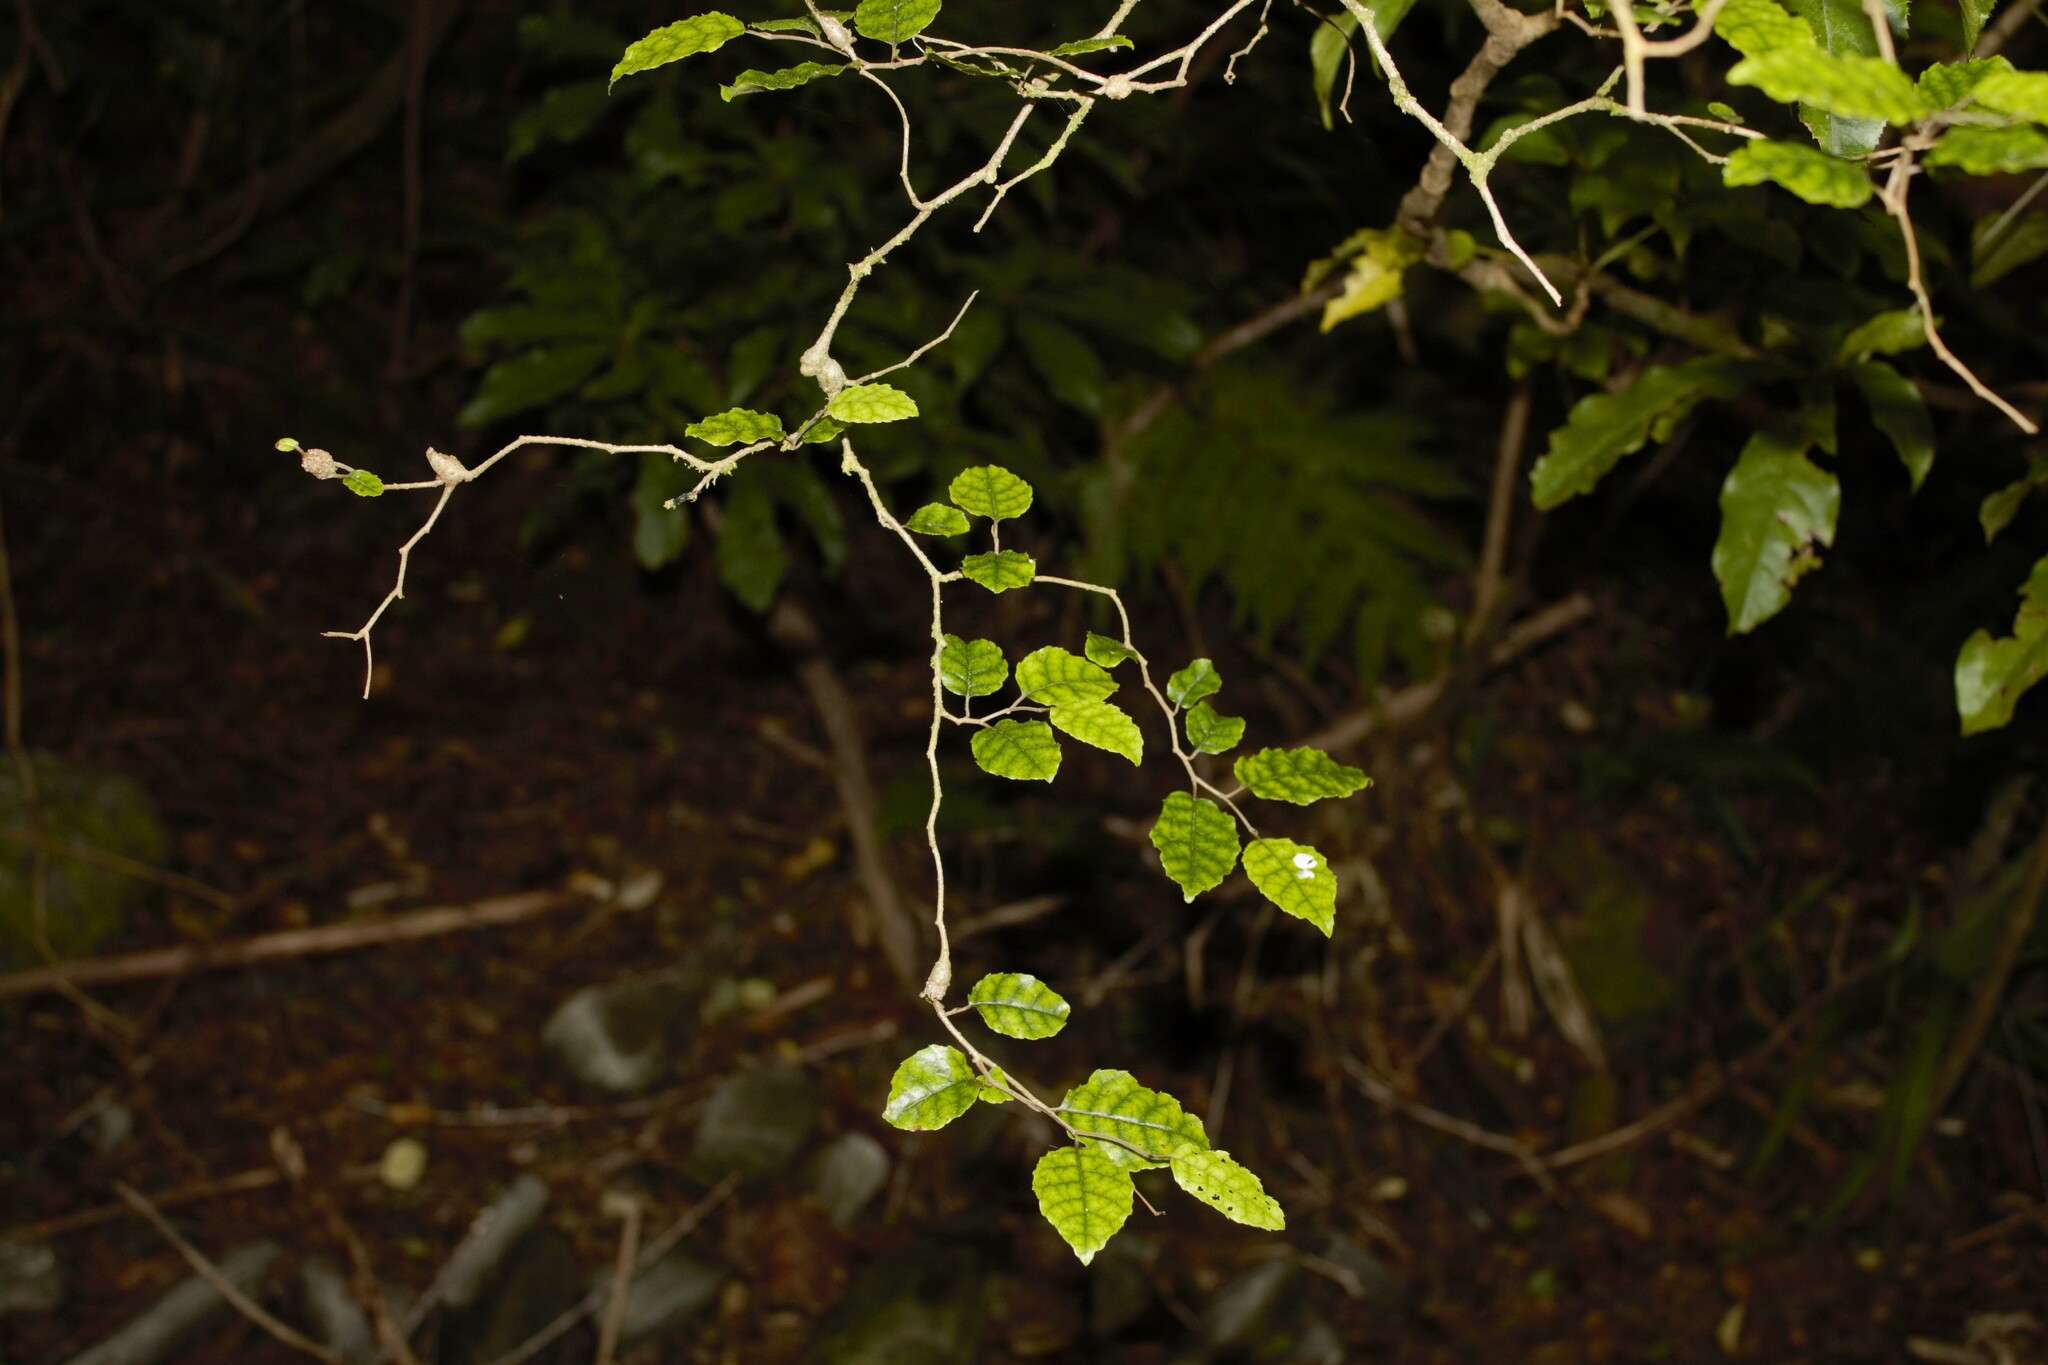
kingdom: Plantae
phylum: Tracheophyta
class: Magnoliopsida
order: Asterales
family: Rousseaceae
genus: Carpodetus
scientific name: Carpodetus serratus
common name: White mapau
